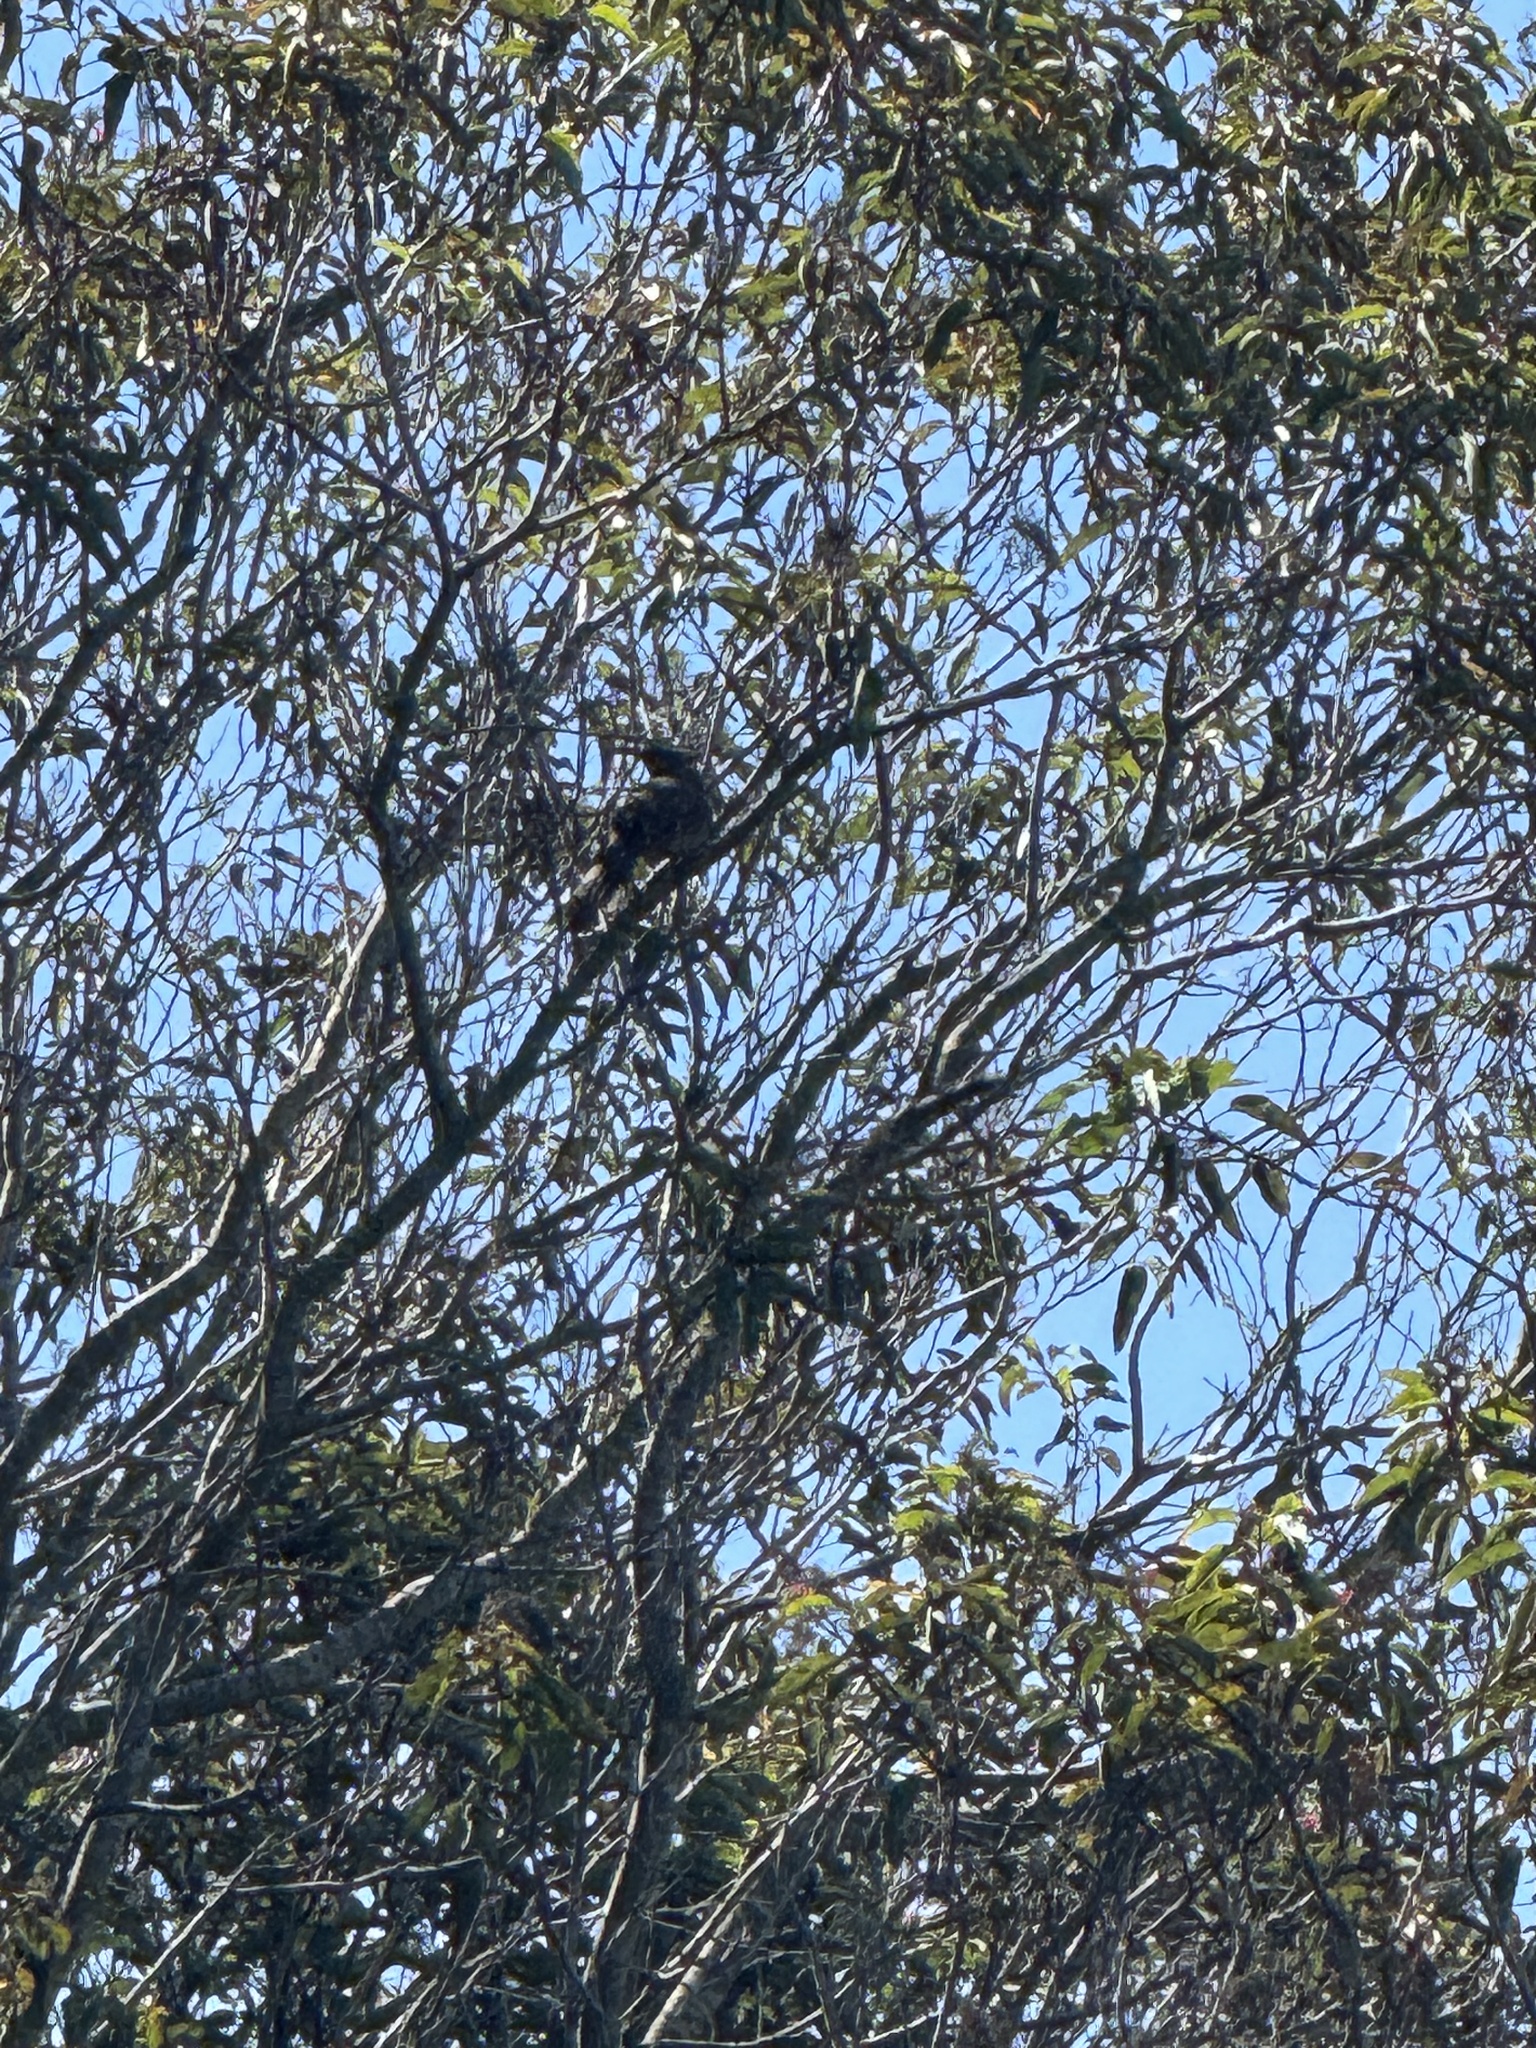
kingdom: Animalia
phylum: Chordata
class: Aves
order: Passeriformes
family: Passerellidae
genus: Melozone
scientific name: Melozone crissalis
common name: California towhee
